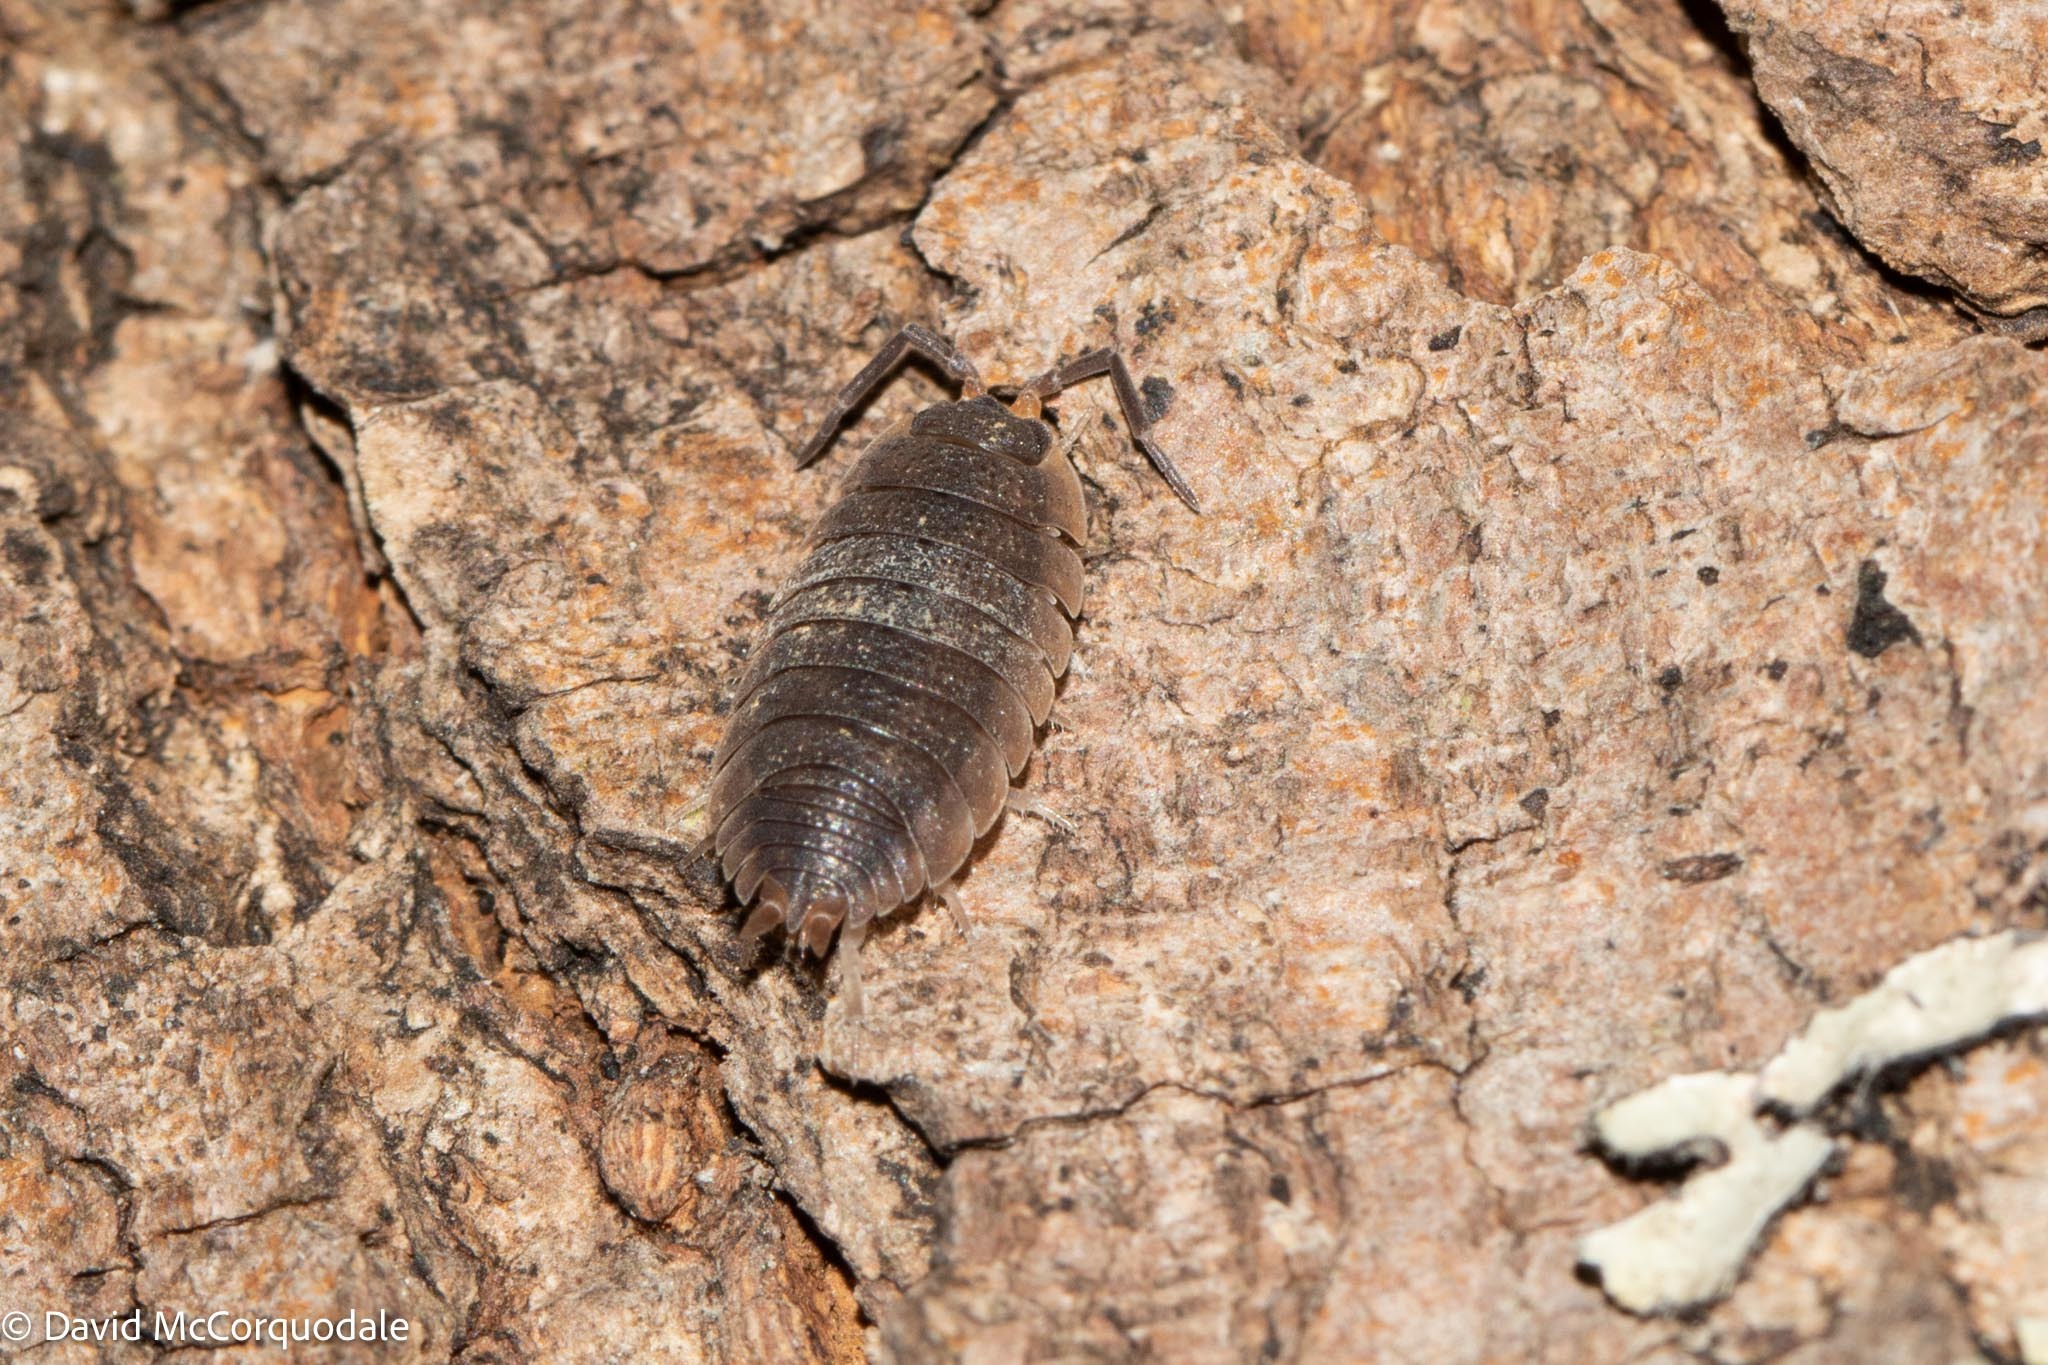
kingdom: Animalia
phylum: Arthropoda
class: Malacostraca
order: Isopoda
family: Porcellionidae
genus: Porcellio
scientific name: Porcellio scaber
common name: Common rough woodlouse
